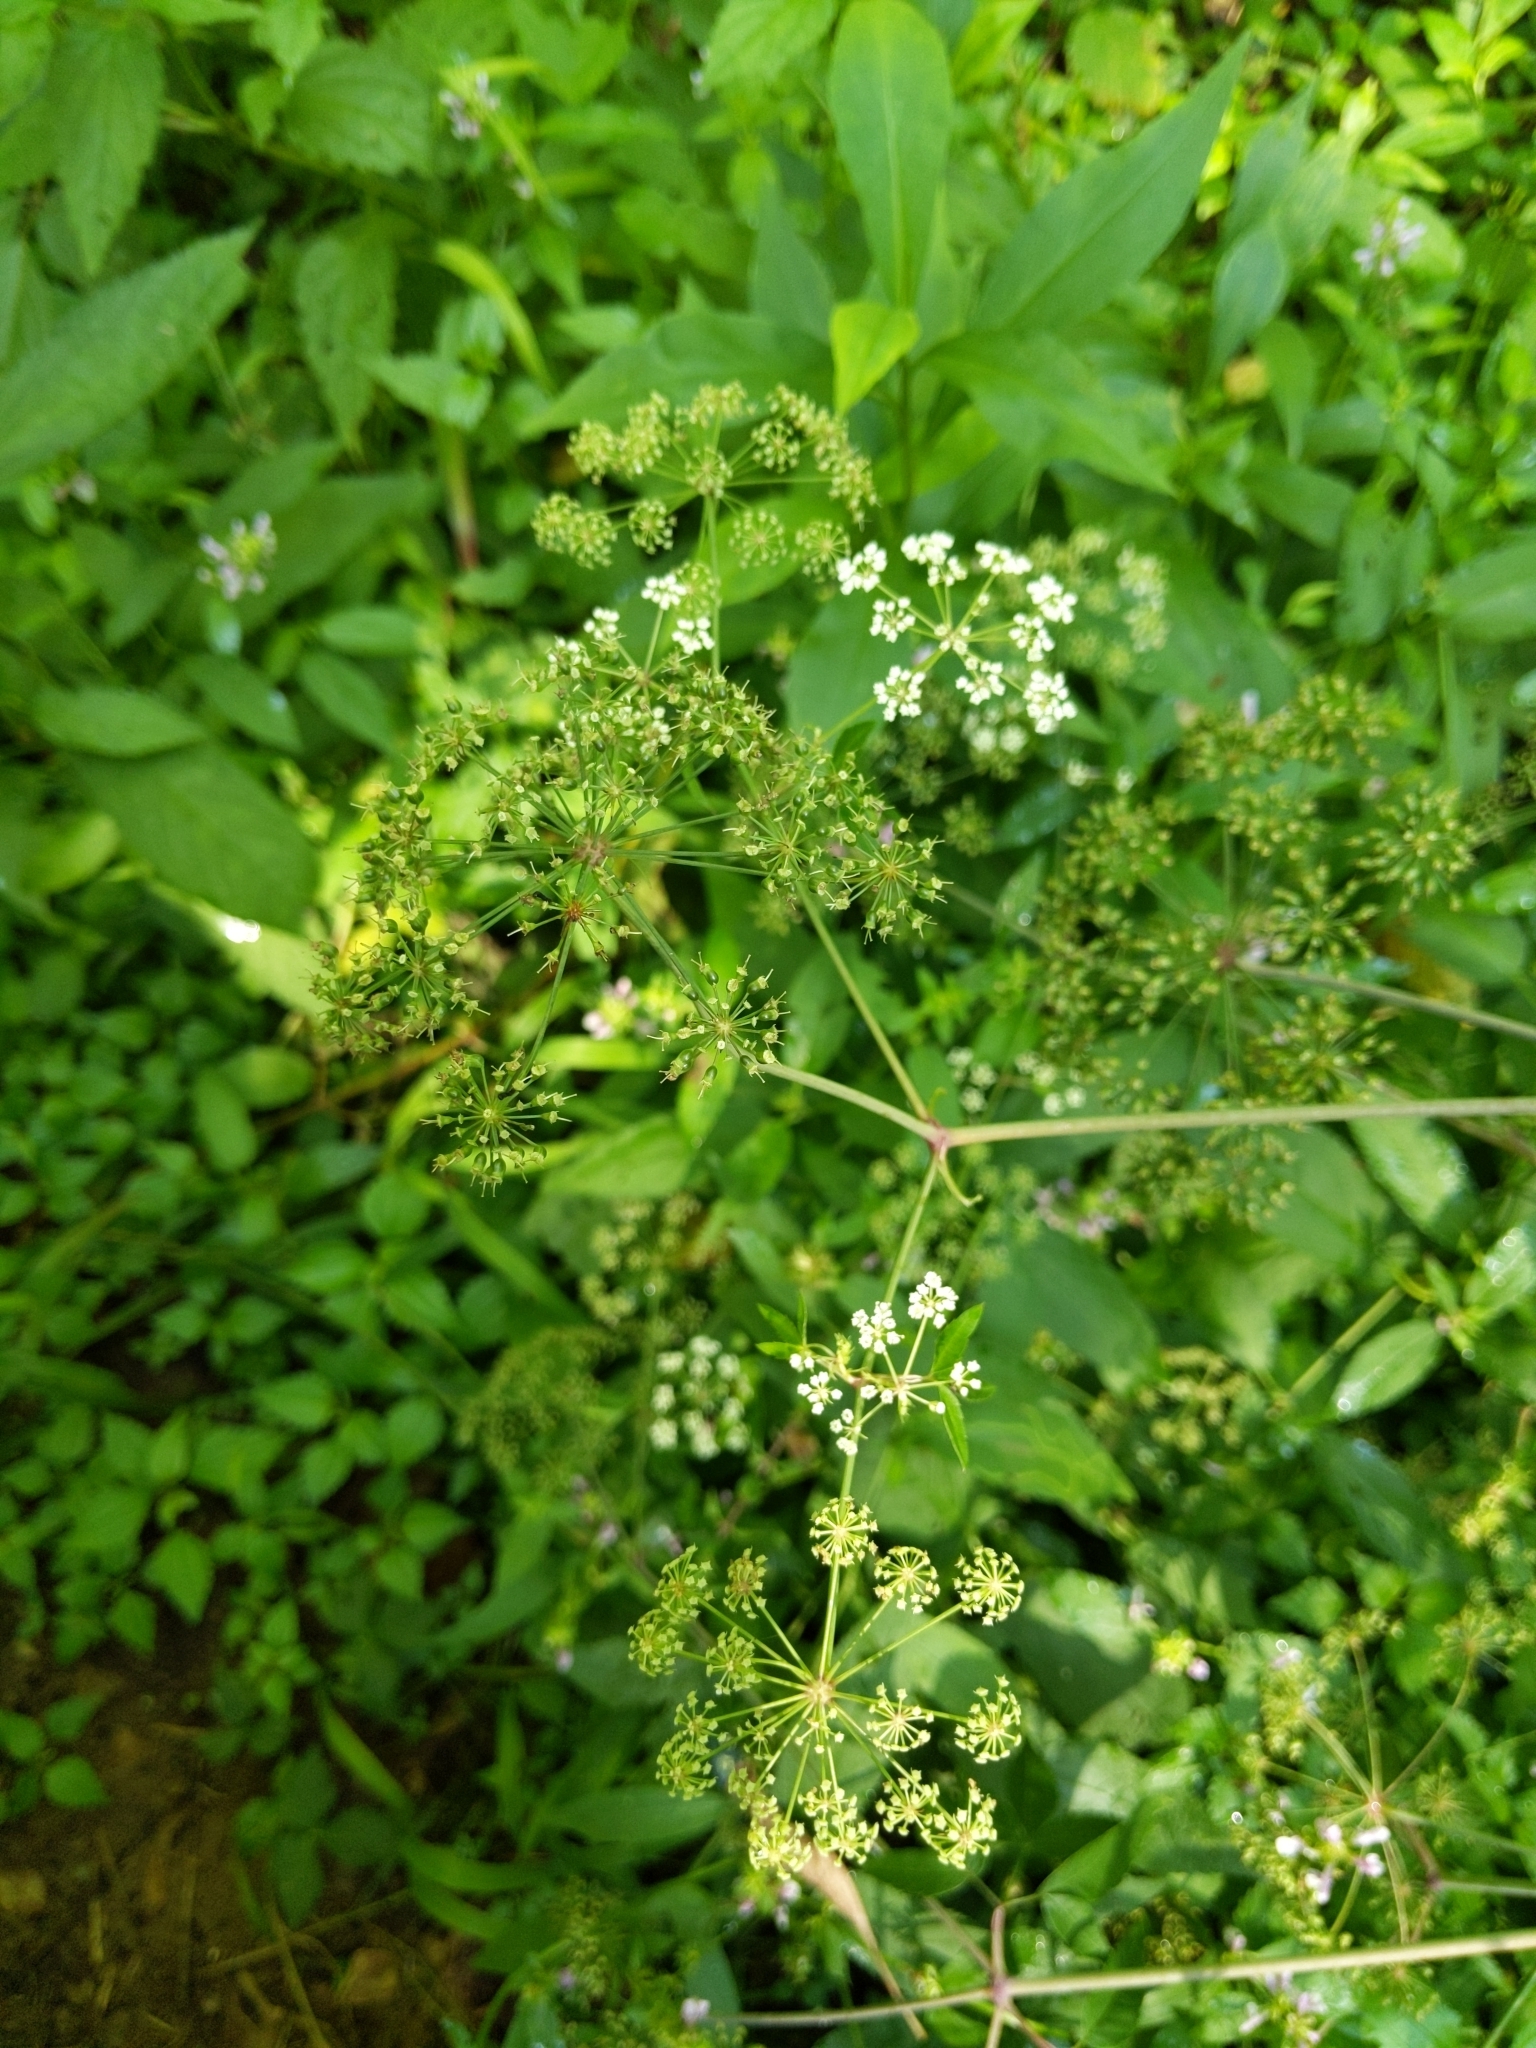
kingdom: Plantae
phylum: Tracheophyta
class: Magnoliopsida
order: Apiales
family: Apiaceae
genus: Cicuta
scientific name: Cicuta maculata
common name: Spotted cowbane
